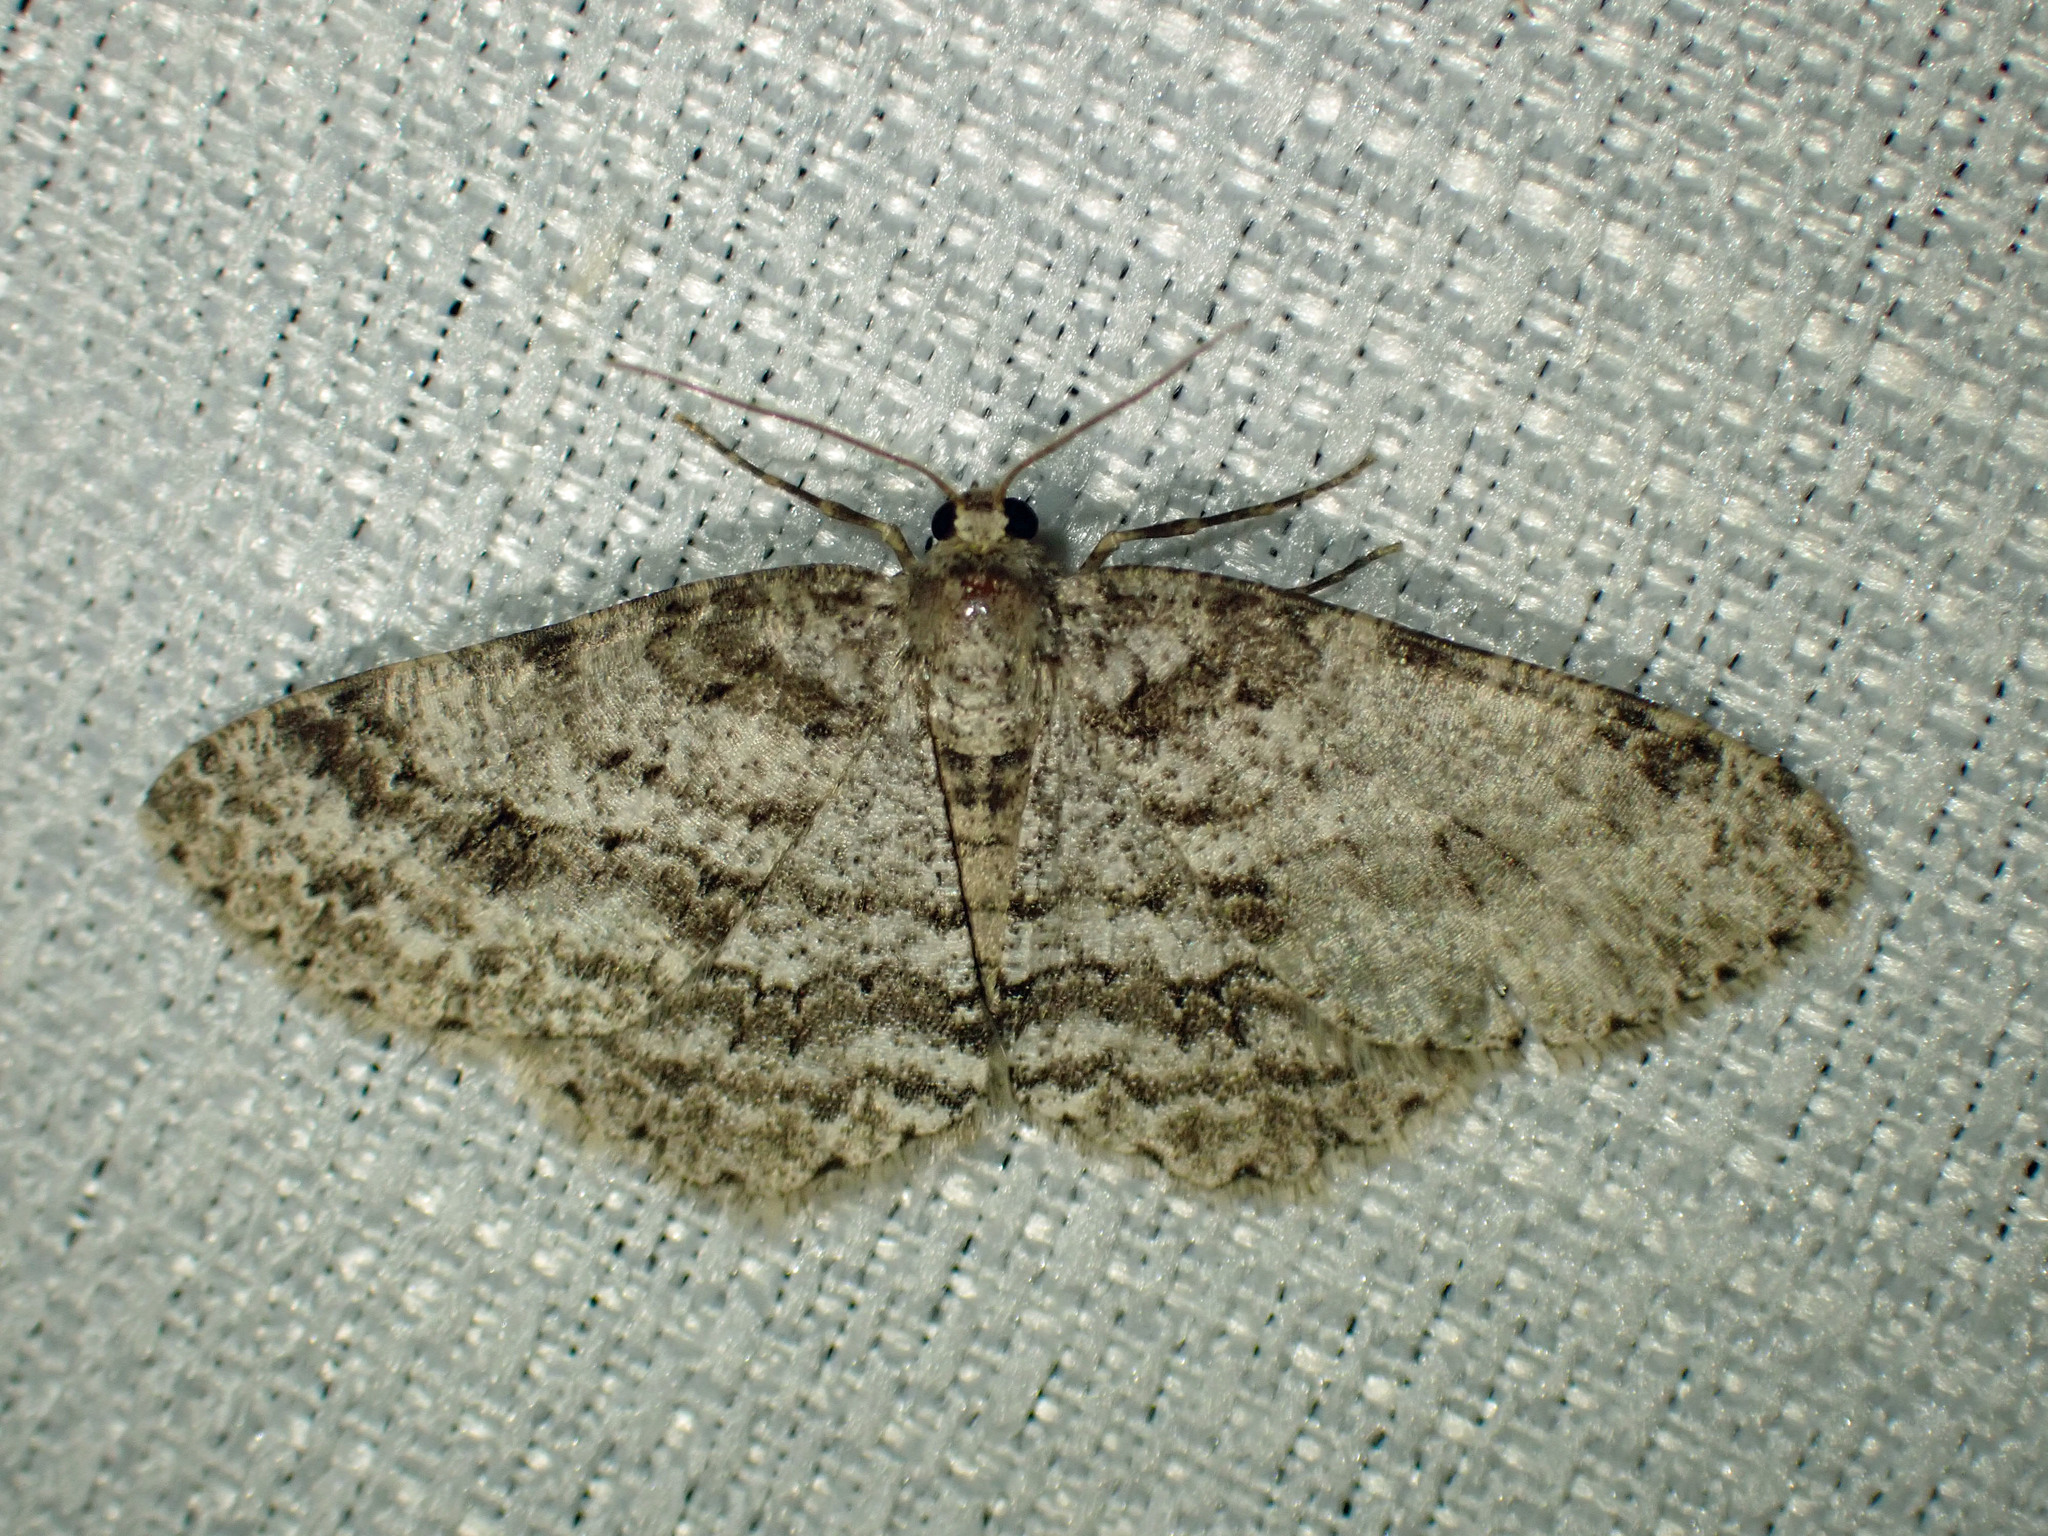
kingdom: Animalia
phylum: Arthropoda
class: Insecta
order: Lepidoptera
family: Geometridae
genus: Ectropis
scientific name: Ectropis crepuscularia
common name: Engrailed
